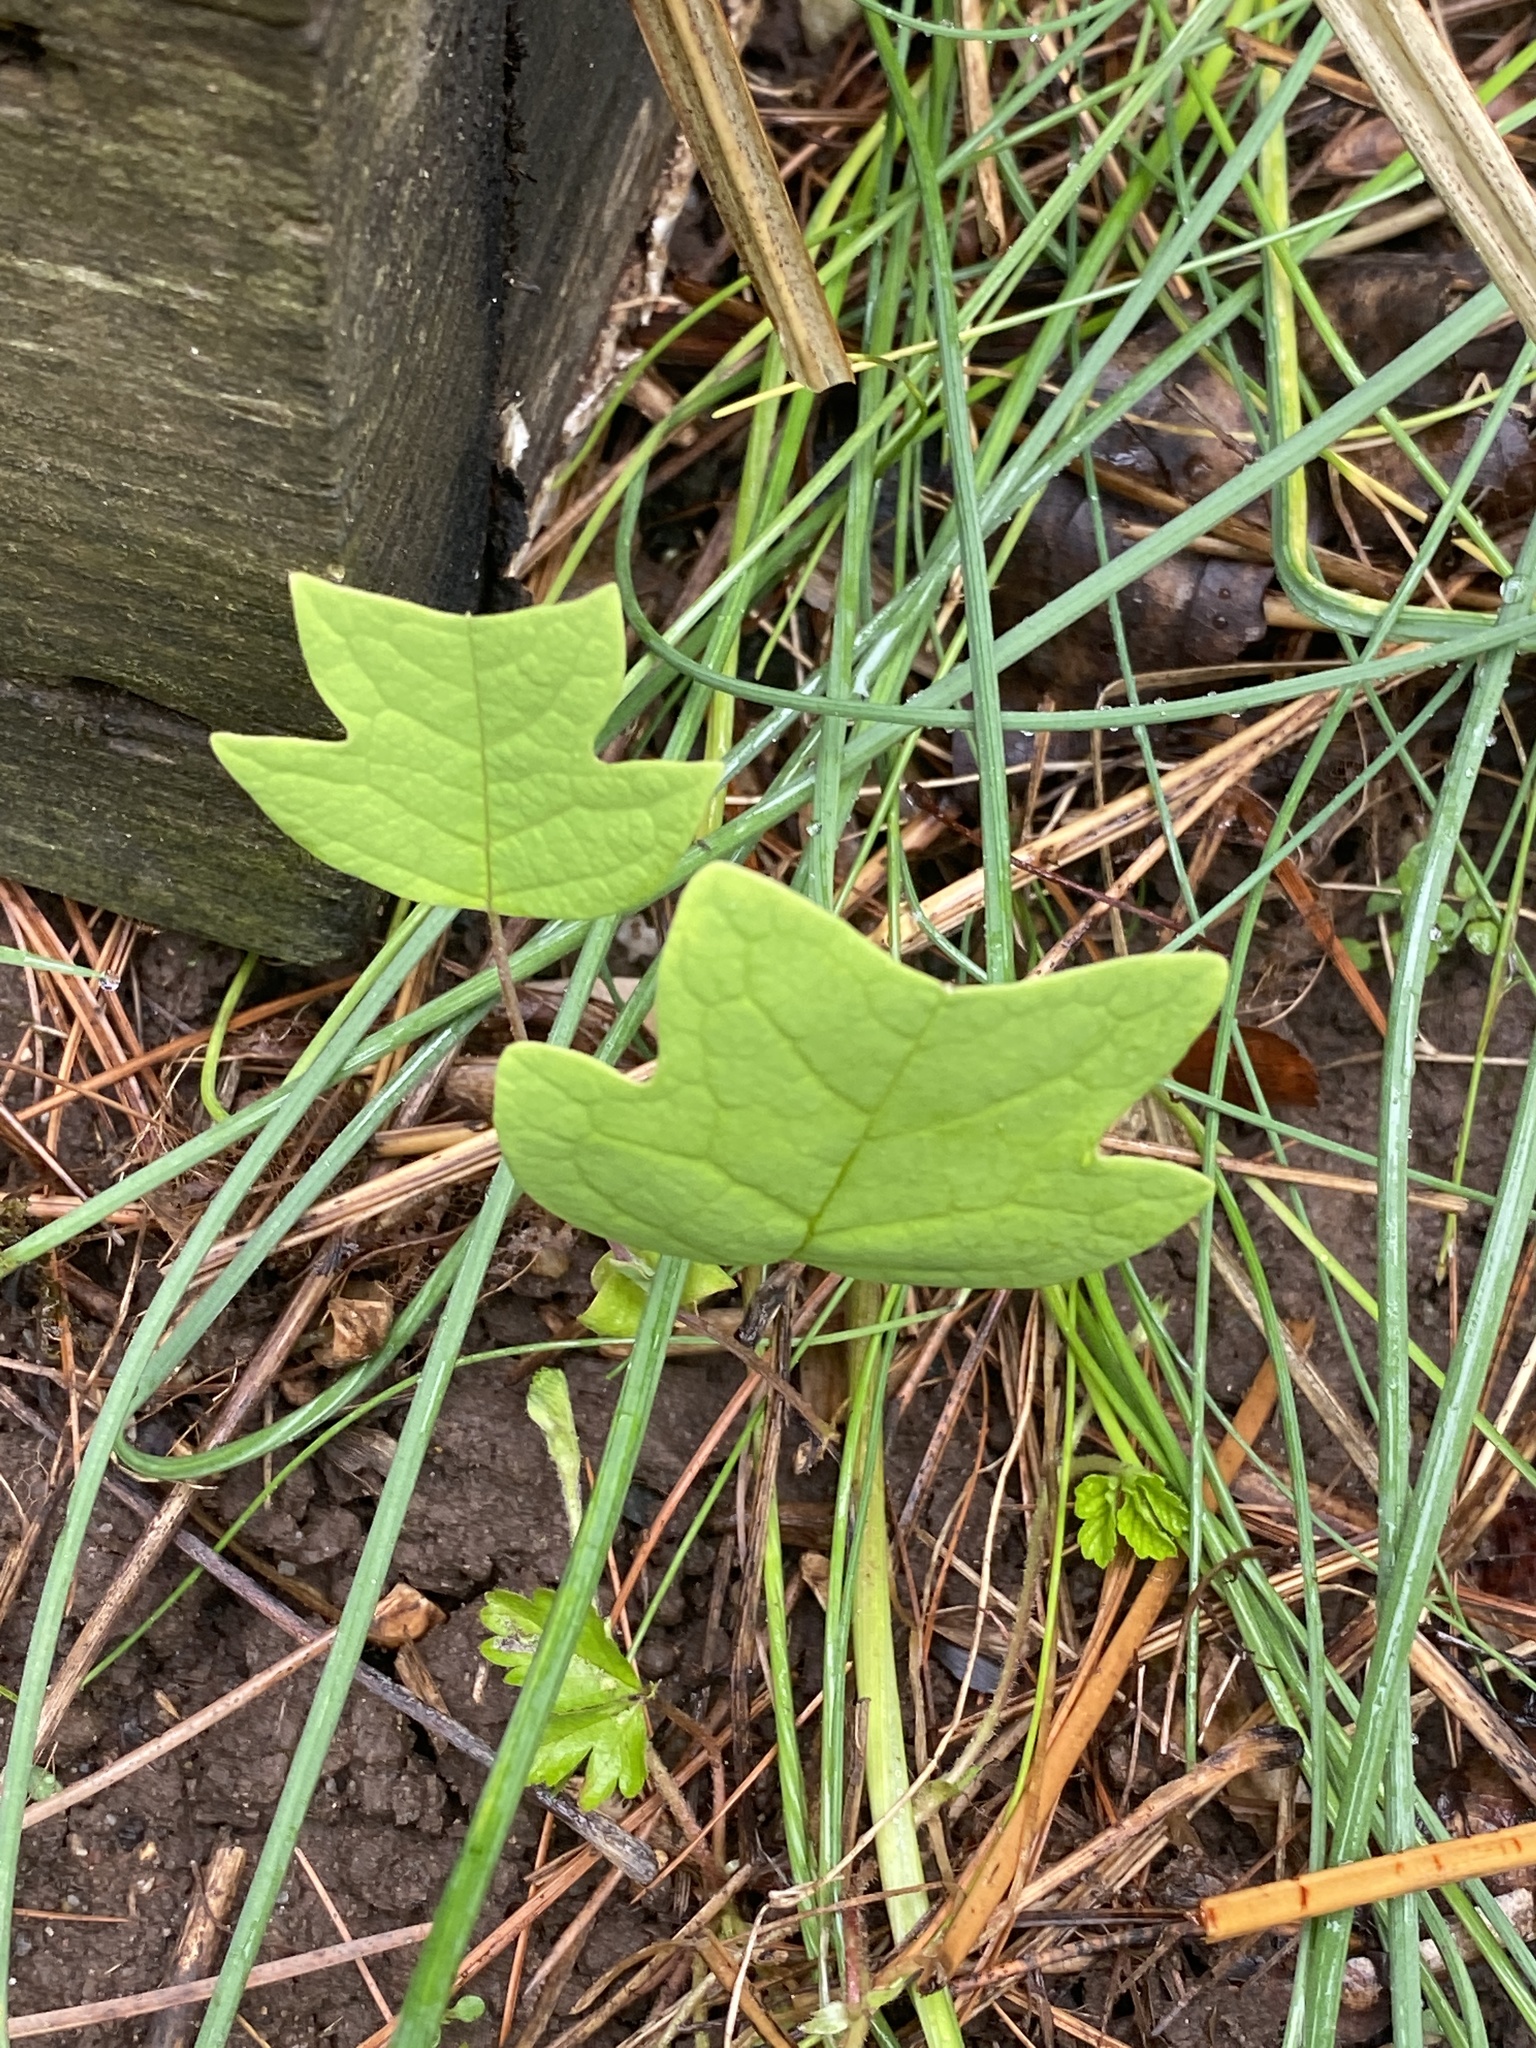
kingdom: Plantae
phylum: Tracheophyta
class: Magnoliopsida
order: Magnoliales
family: Magnoliaceae
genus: Liriodendron
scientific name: Liriodendron tulipifera
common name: Tulip tree
